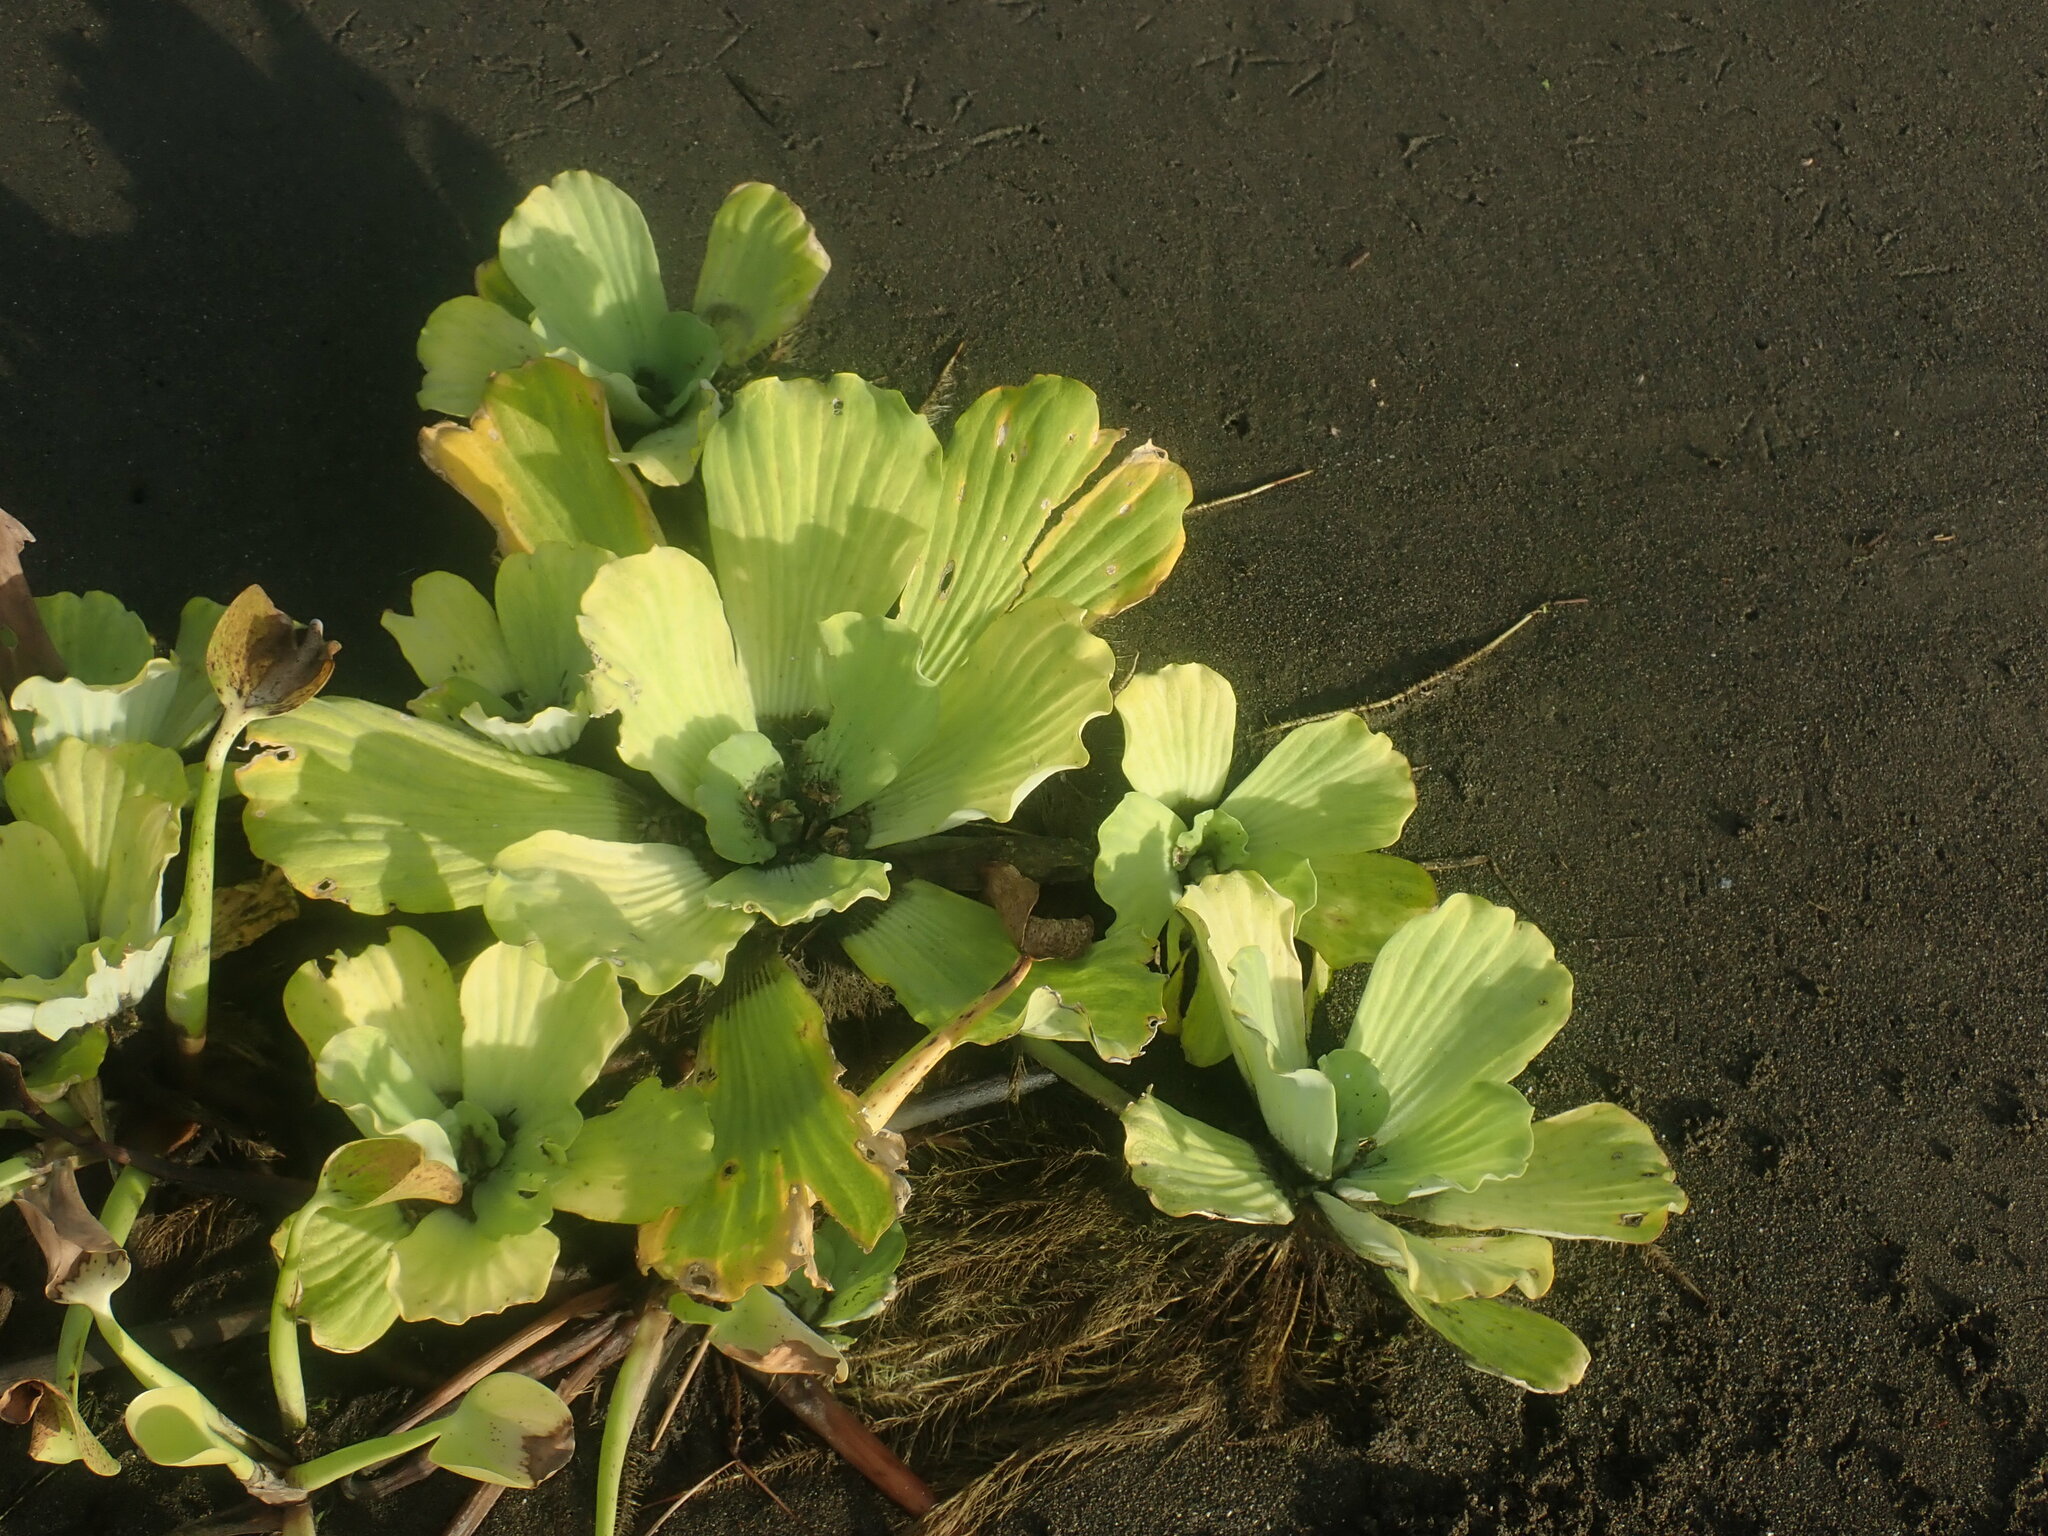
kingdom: Plantae
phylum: Tracheophyta
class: Liliopsida
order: Alismatales
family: Araceae
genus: Pistia
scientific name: Pistia stratiotes
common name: Water lettuce
